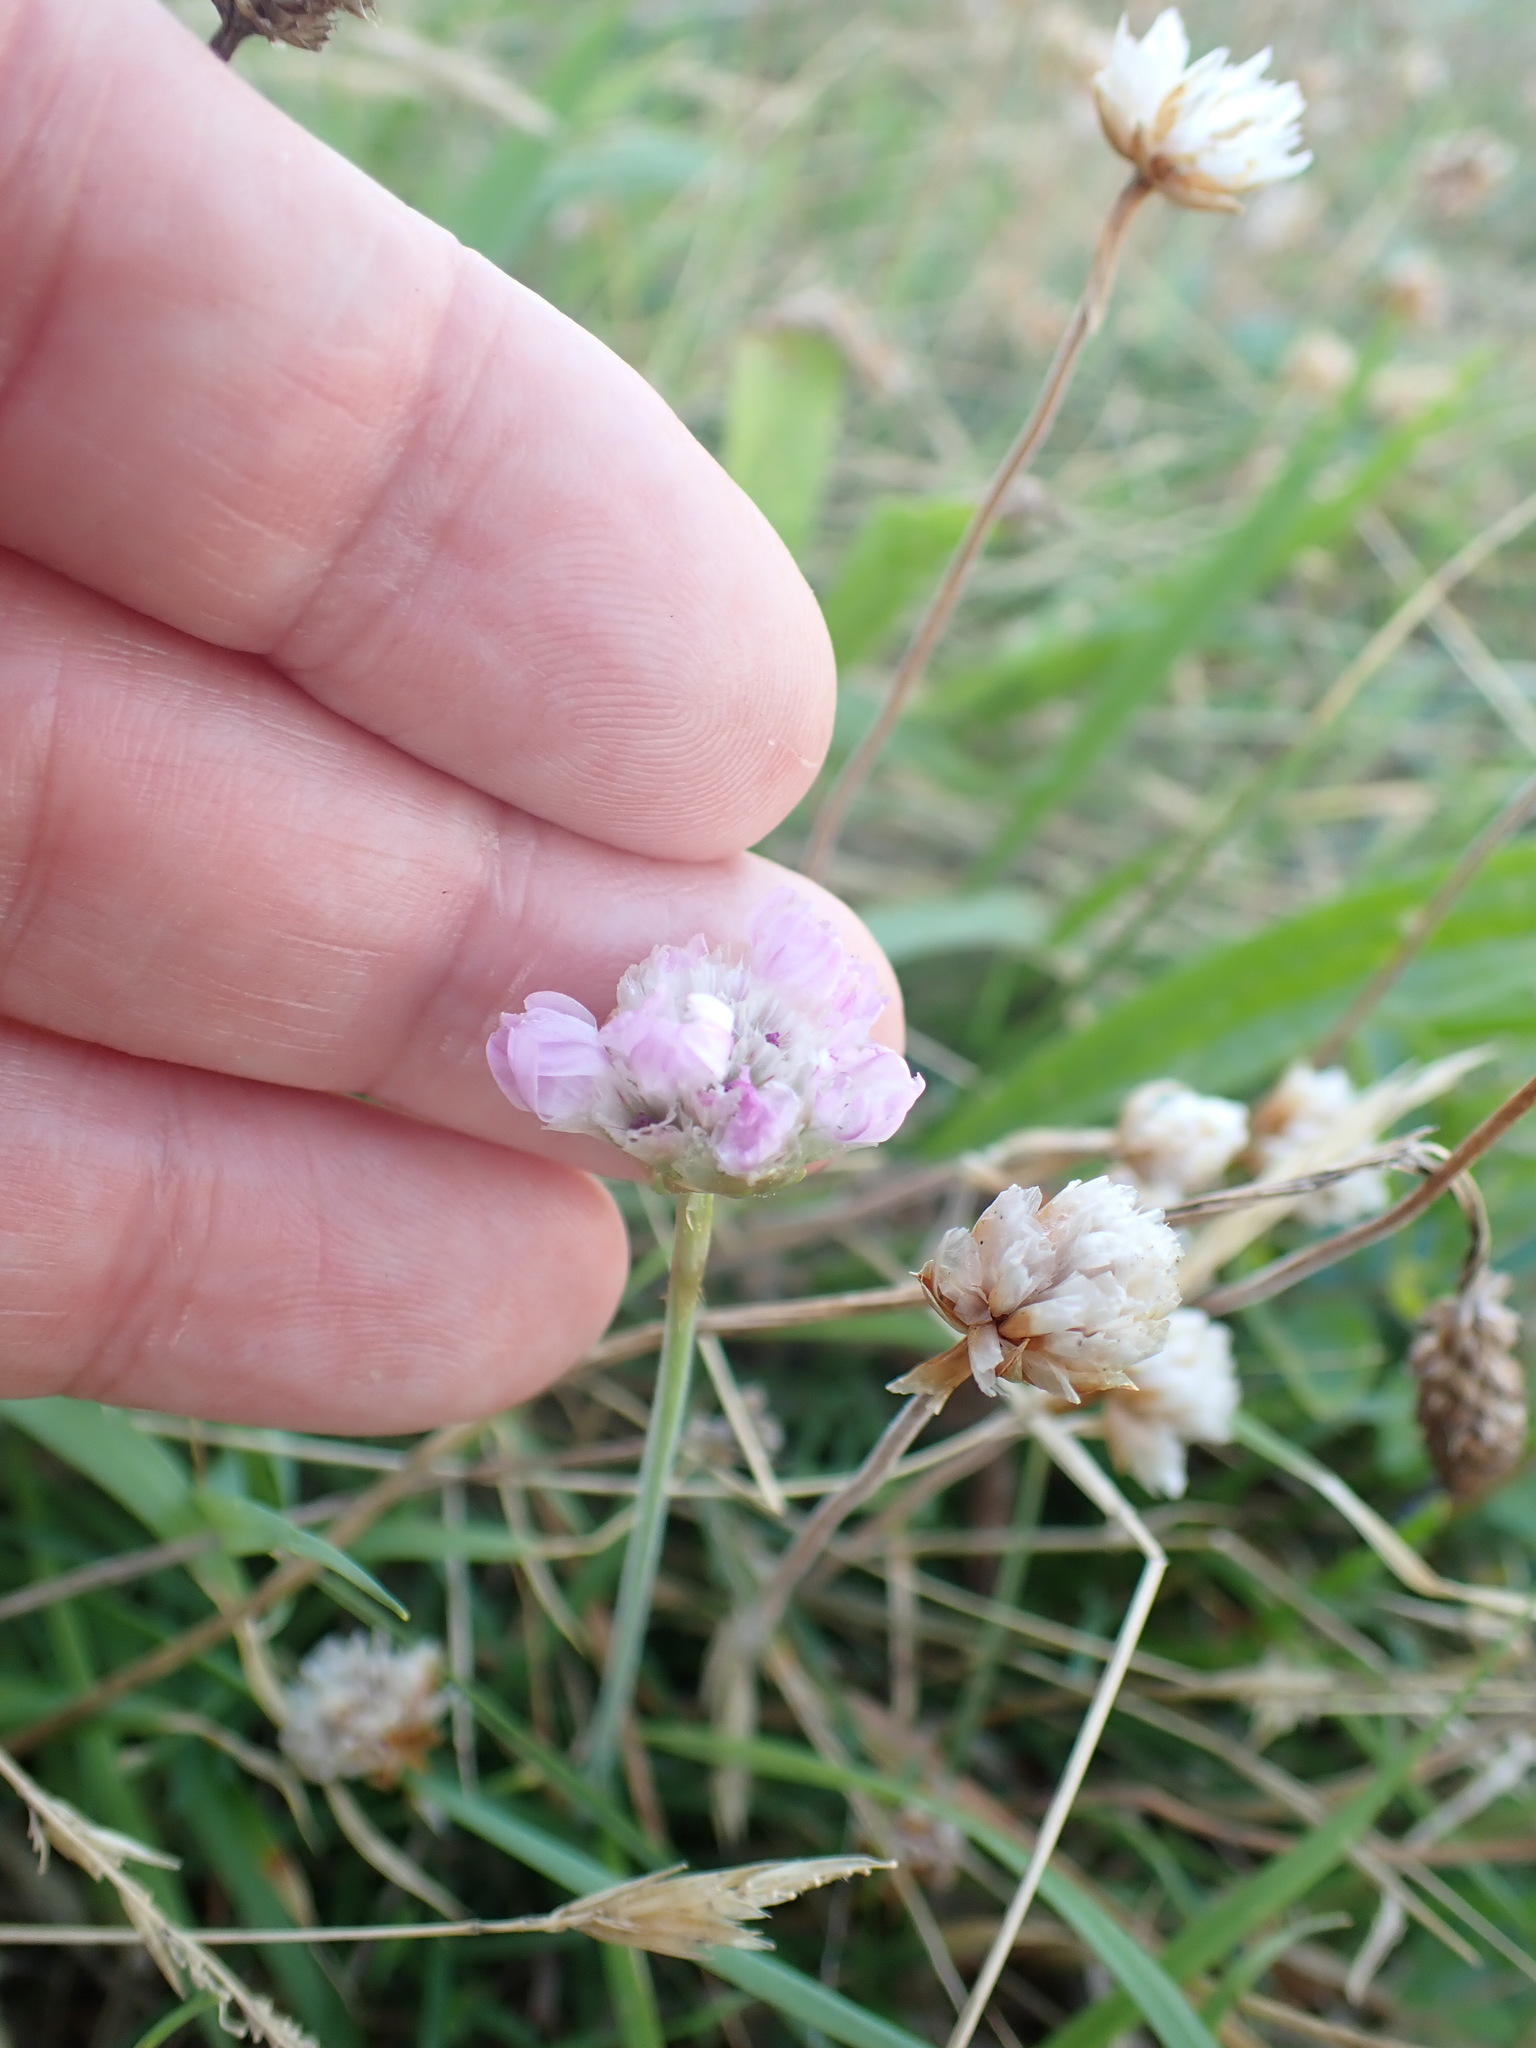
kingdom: Plantae
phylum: Tracheophyta
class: Magnoliopsida
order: Caryophyllales
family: Plumbaginaceae
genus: Armeria
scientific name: Armeria maritima
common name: Thrift
